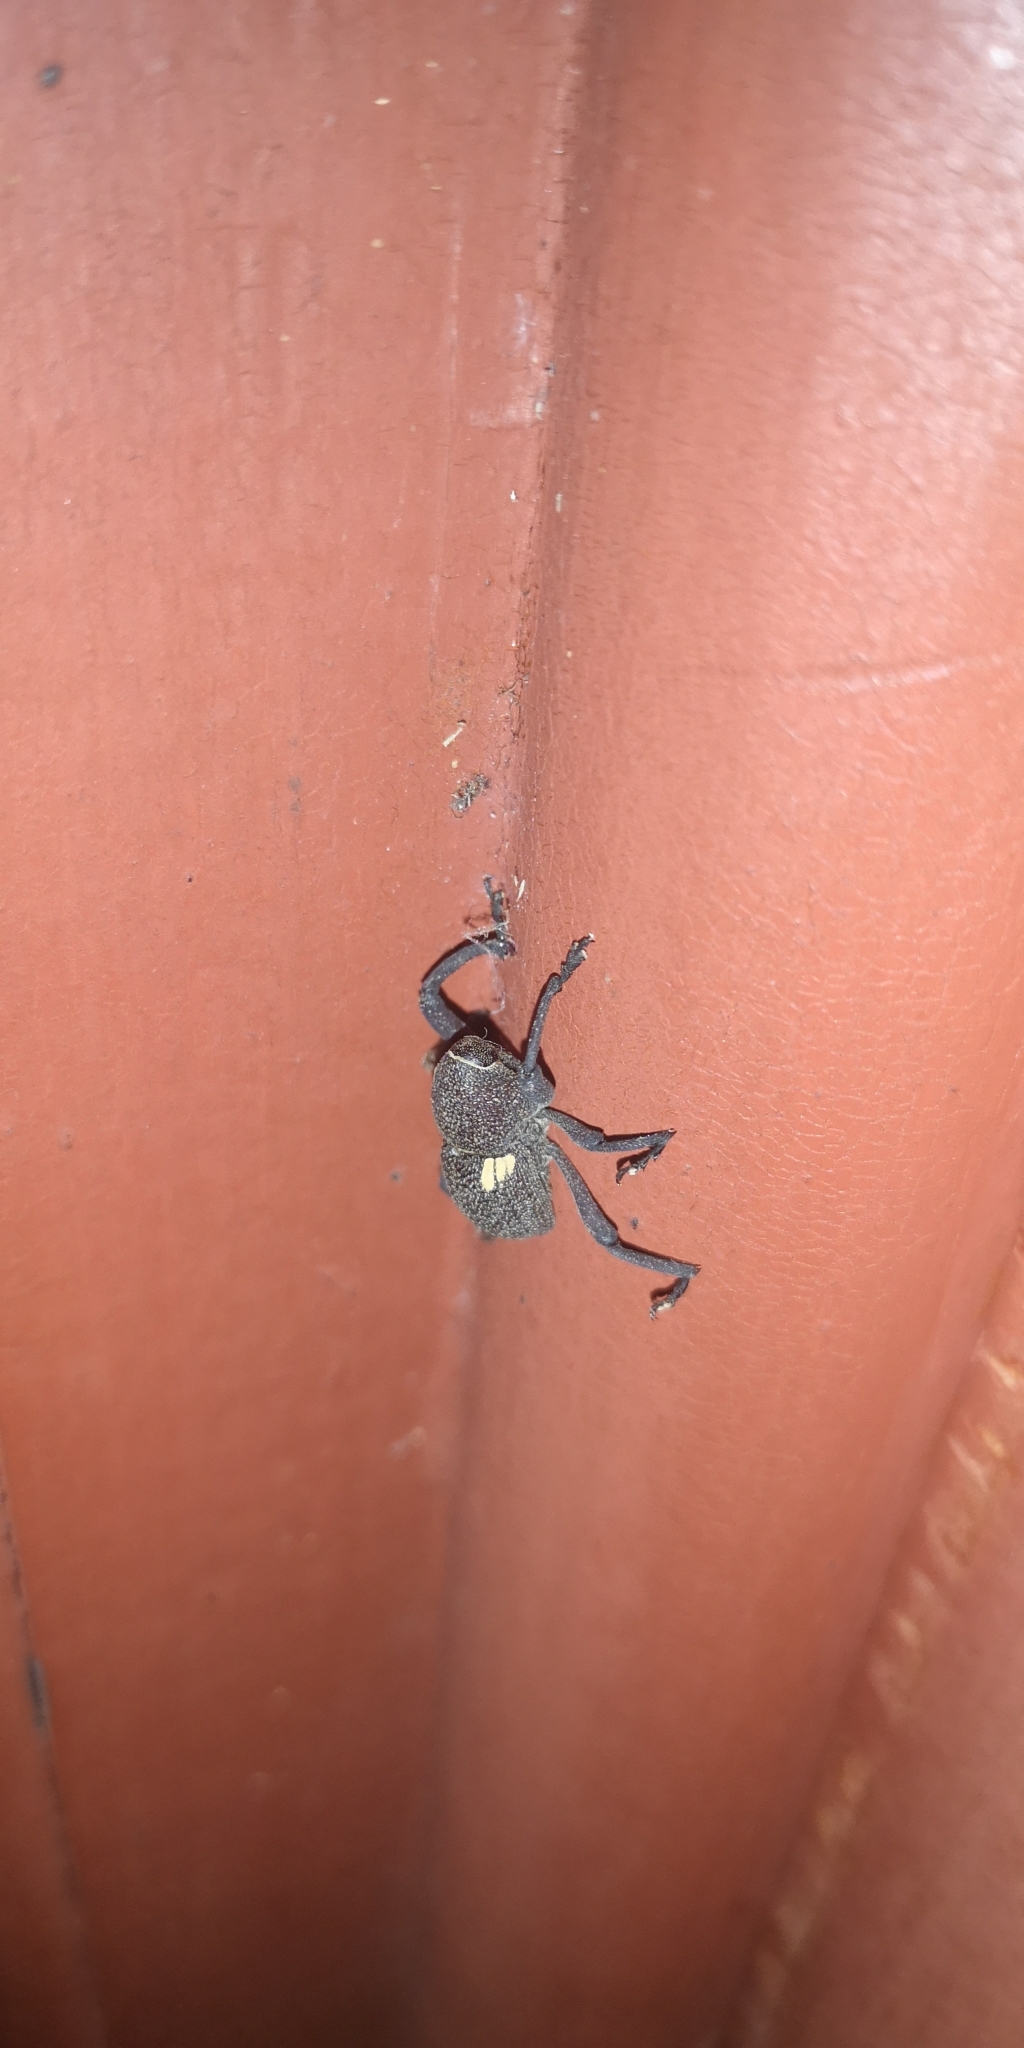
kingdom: Animalia
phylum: Arthropoda
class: Insecta
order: Coleoptera
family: Curculionidae
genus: Rhyephenes
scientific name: Rhyephenes gayi
